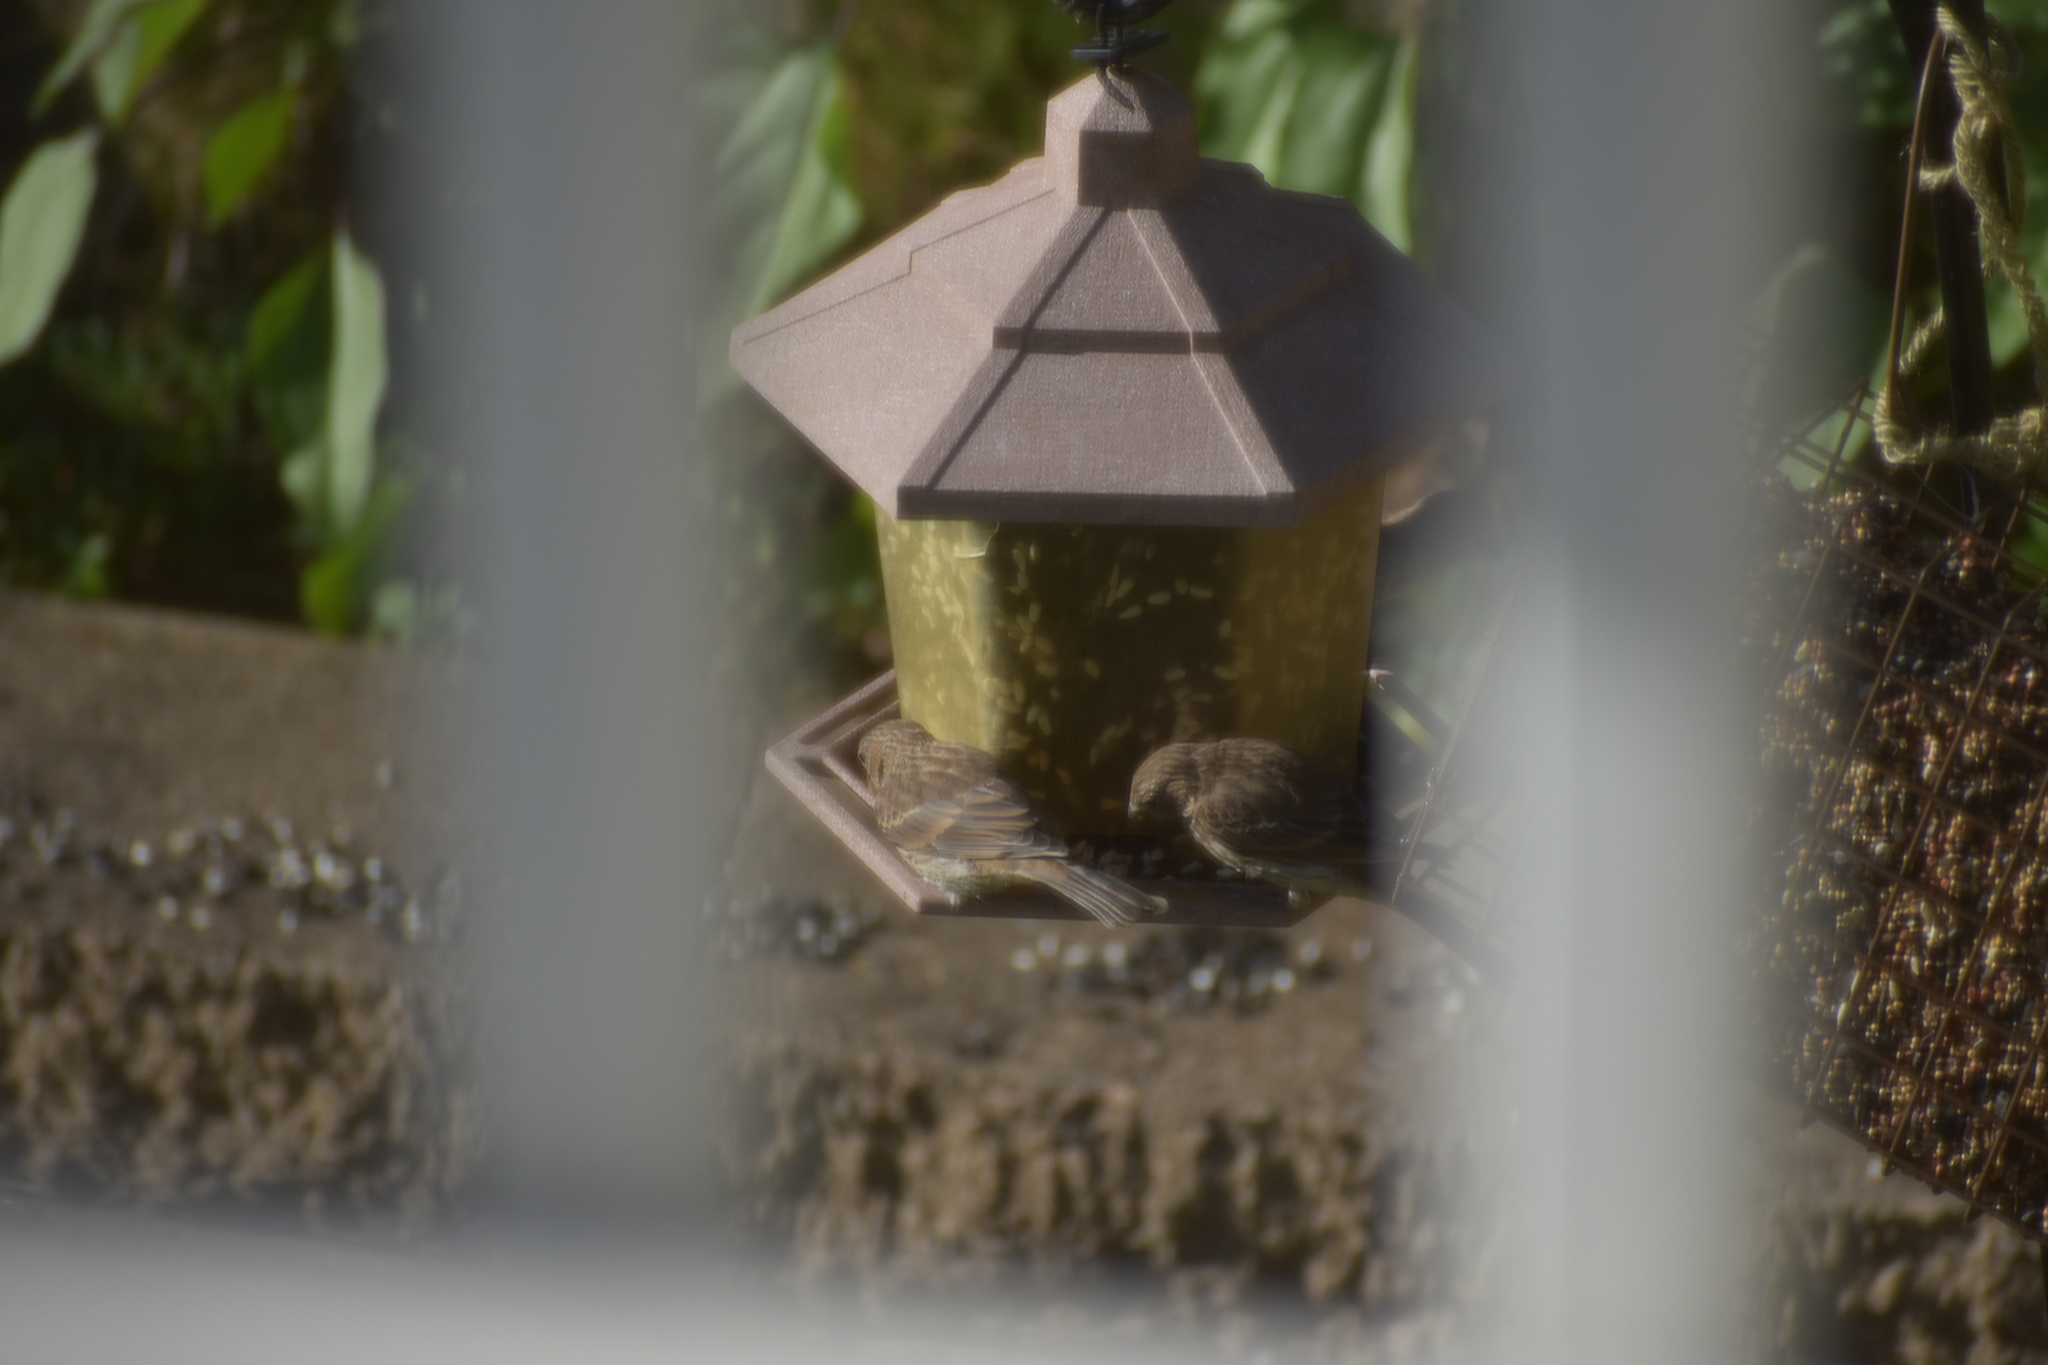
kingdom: Animalia
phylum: Chordata
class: Aves
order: Passeriformes
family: Fringillidae
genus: Haemorhous
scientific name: Haemorhous mexicanus
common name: House finch
